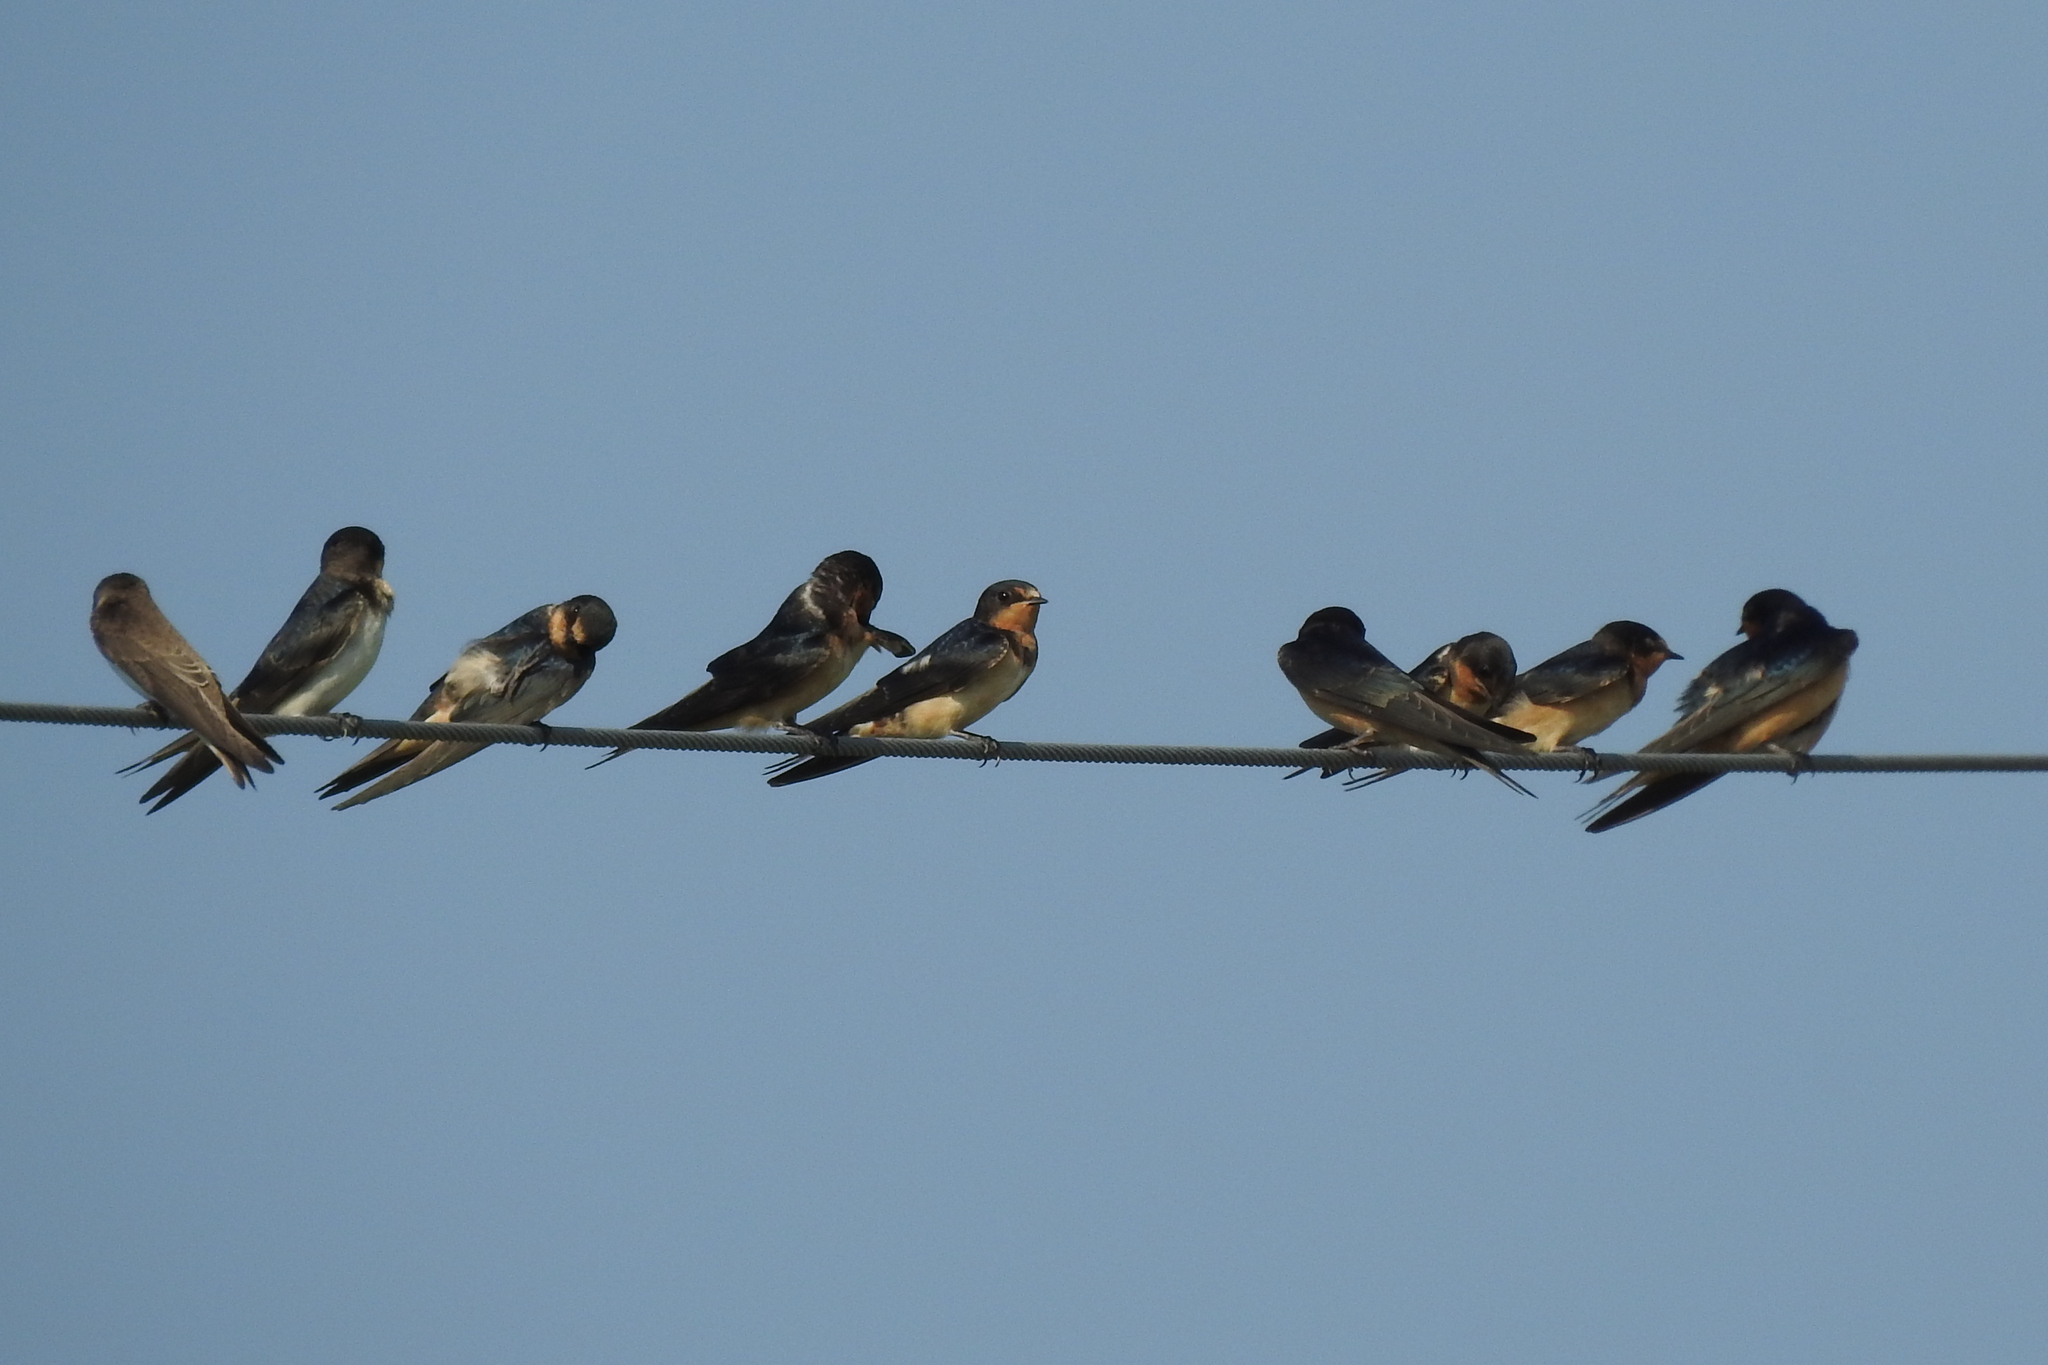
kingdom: Animalia
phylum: Chordata
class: Aves
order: Passeriformes
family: Hirundinidae
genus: Hirundo
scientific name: Hirundo rustica
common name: Barn swallow
